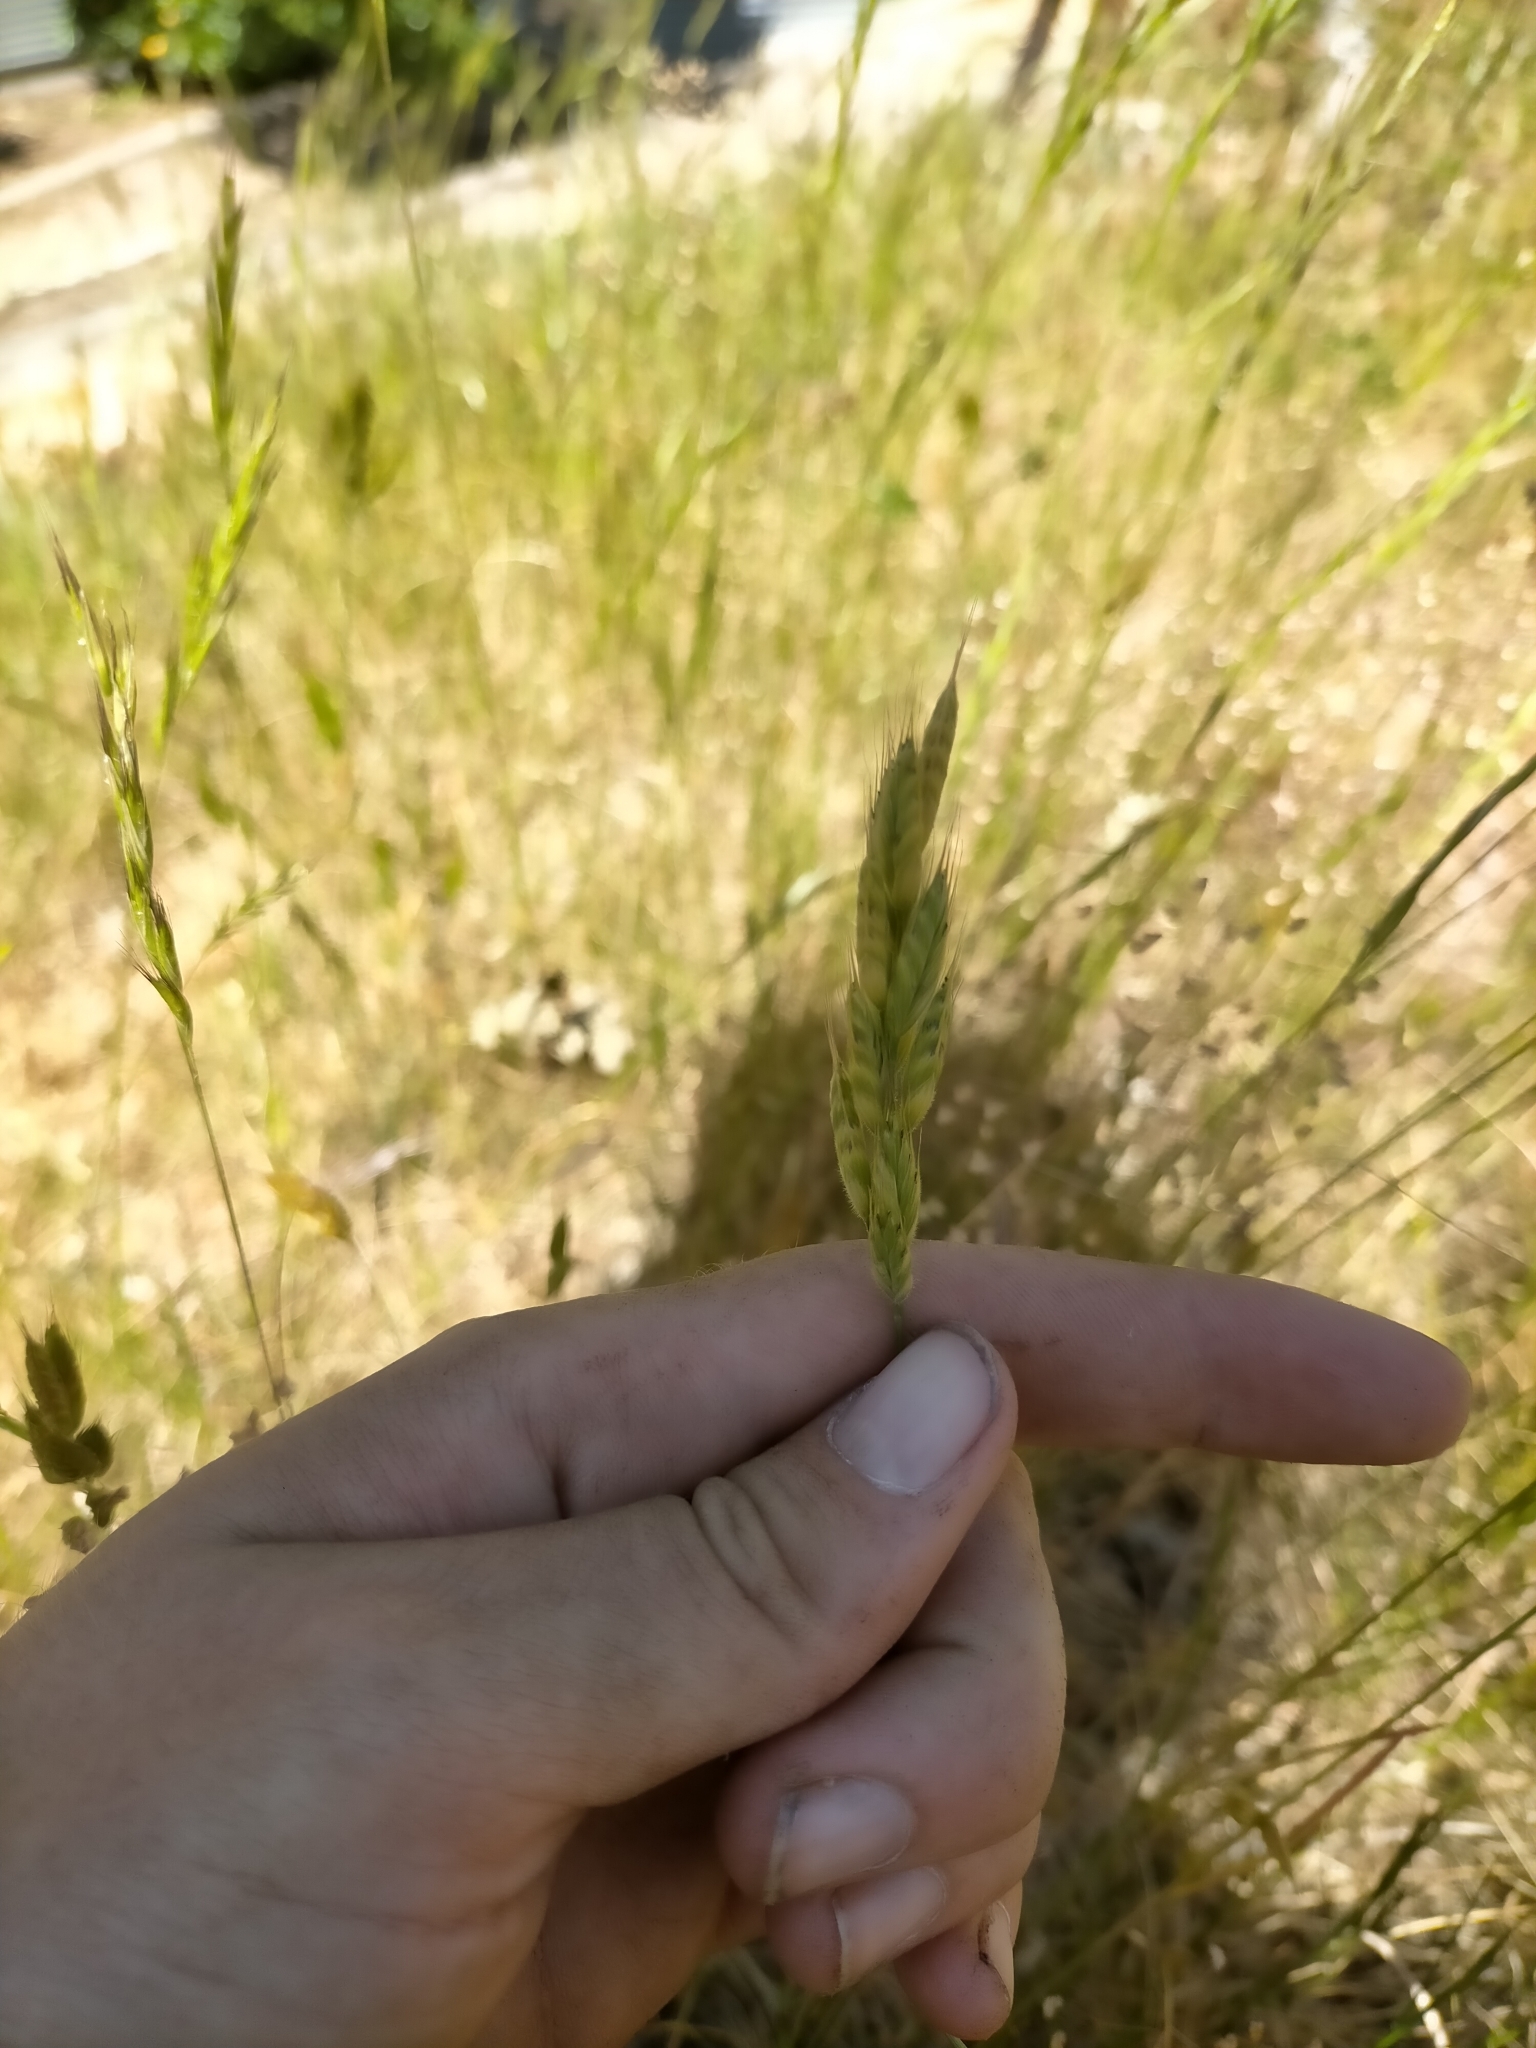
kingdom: Plantae
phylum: Tracheophyta
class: Liliopsida
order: Poales
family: Poaceae
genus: Bromus
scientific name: Bromus hordeaceus
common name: Soft brome
